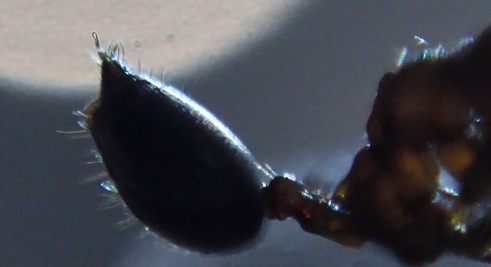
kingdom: Animalia
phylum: Arthropoda
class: Insecta
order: Hymenoptera
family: Formicidae
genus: Crematogaster
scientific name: Crematogaster schmidti
